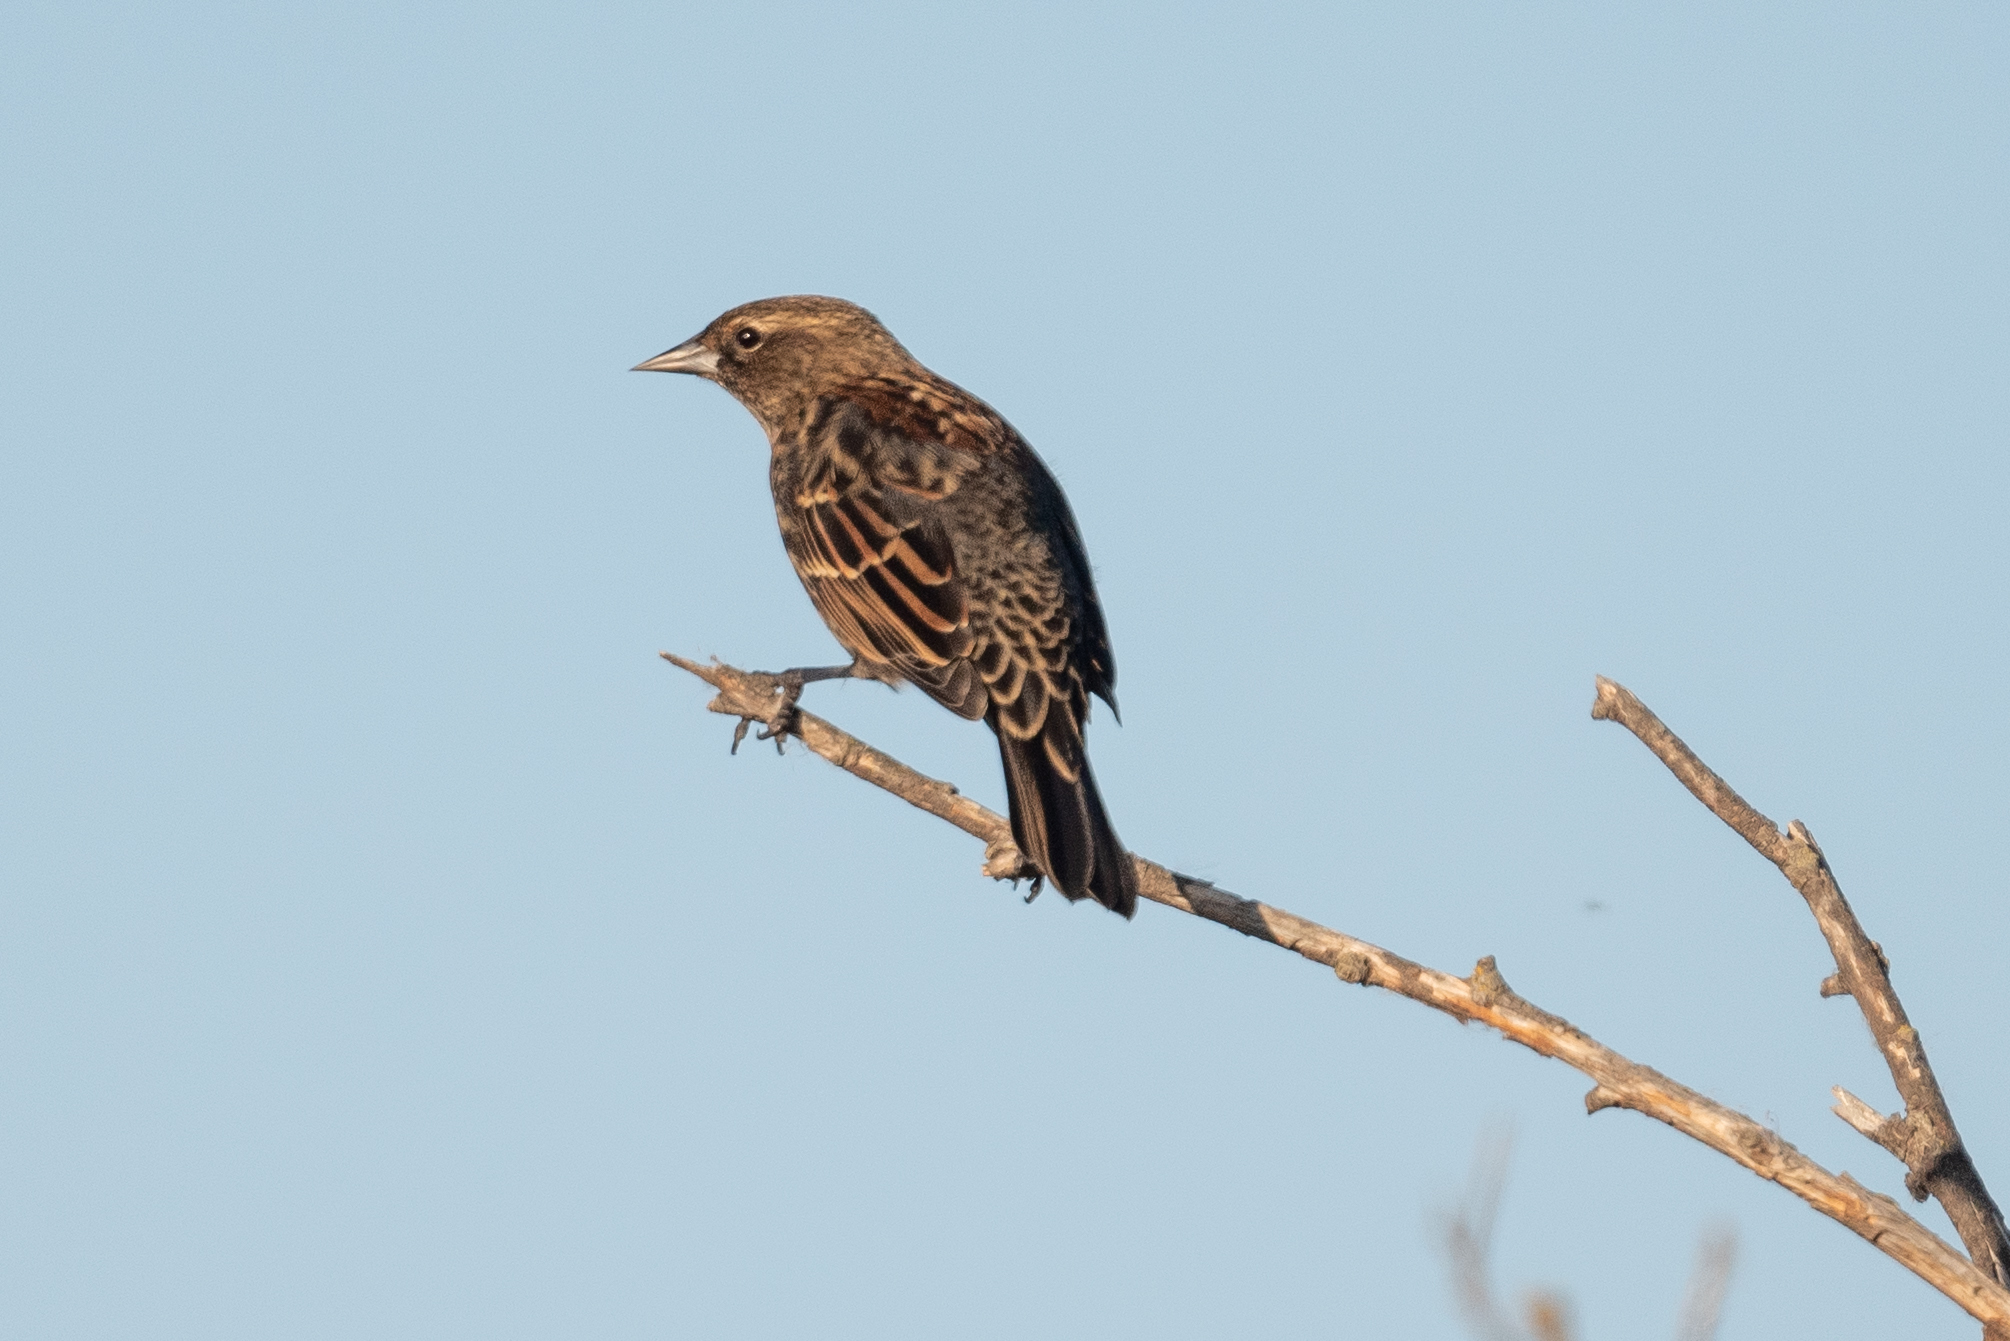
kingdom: Animalia
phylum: Chordata
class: Aves
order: Passeriformes
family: Icteridae
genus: Agelaius
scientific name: Agelaius phoeniceus
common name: Red-winged blackbird
